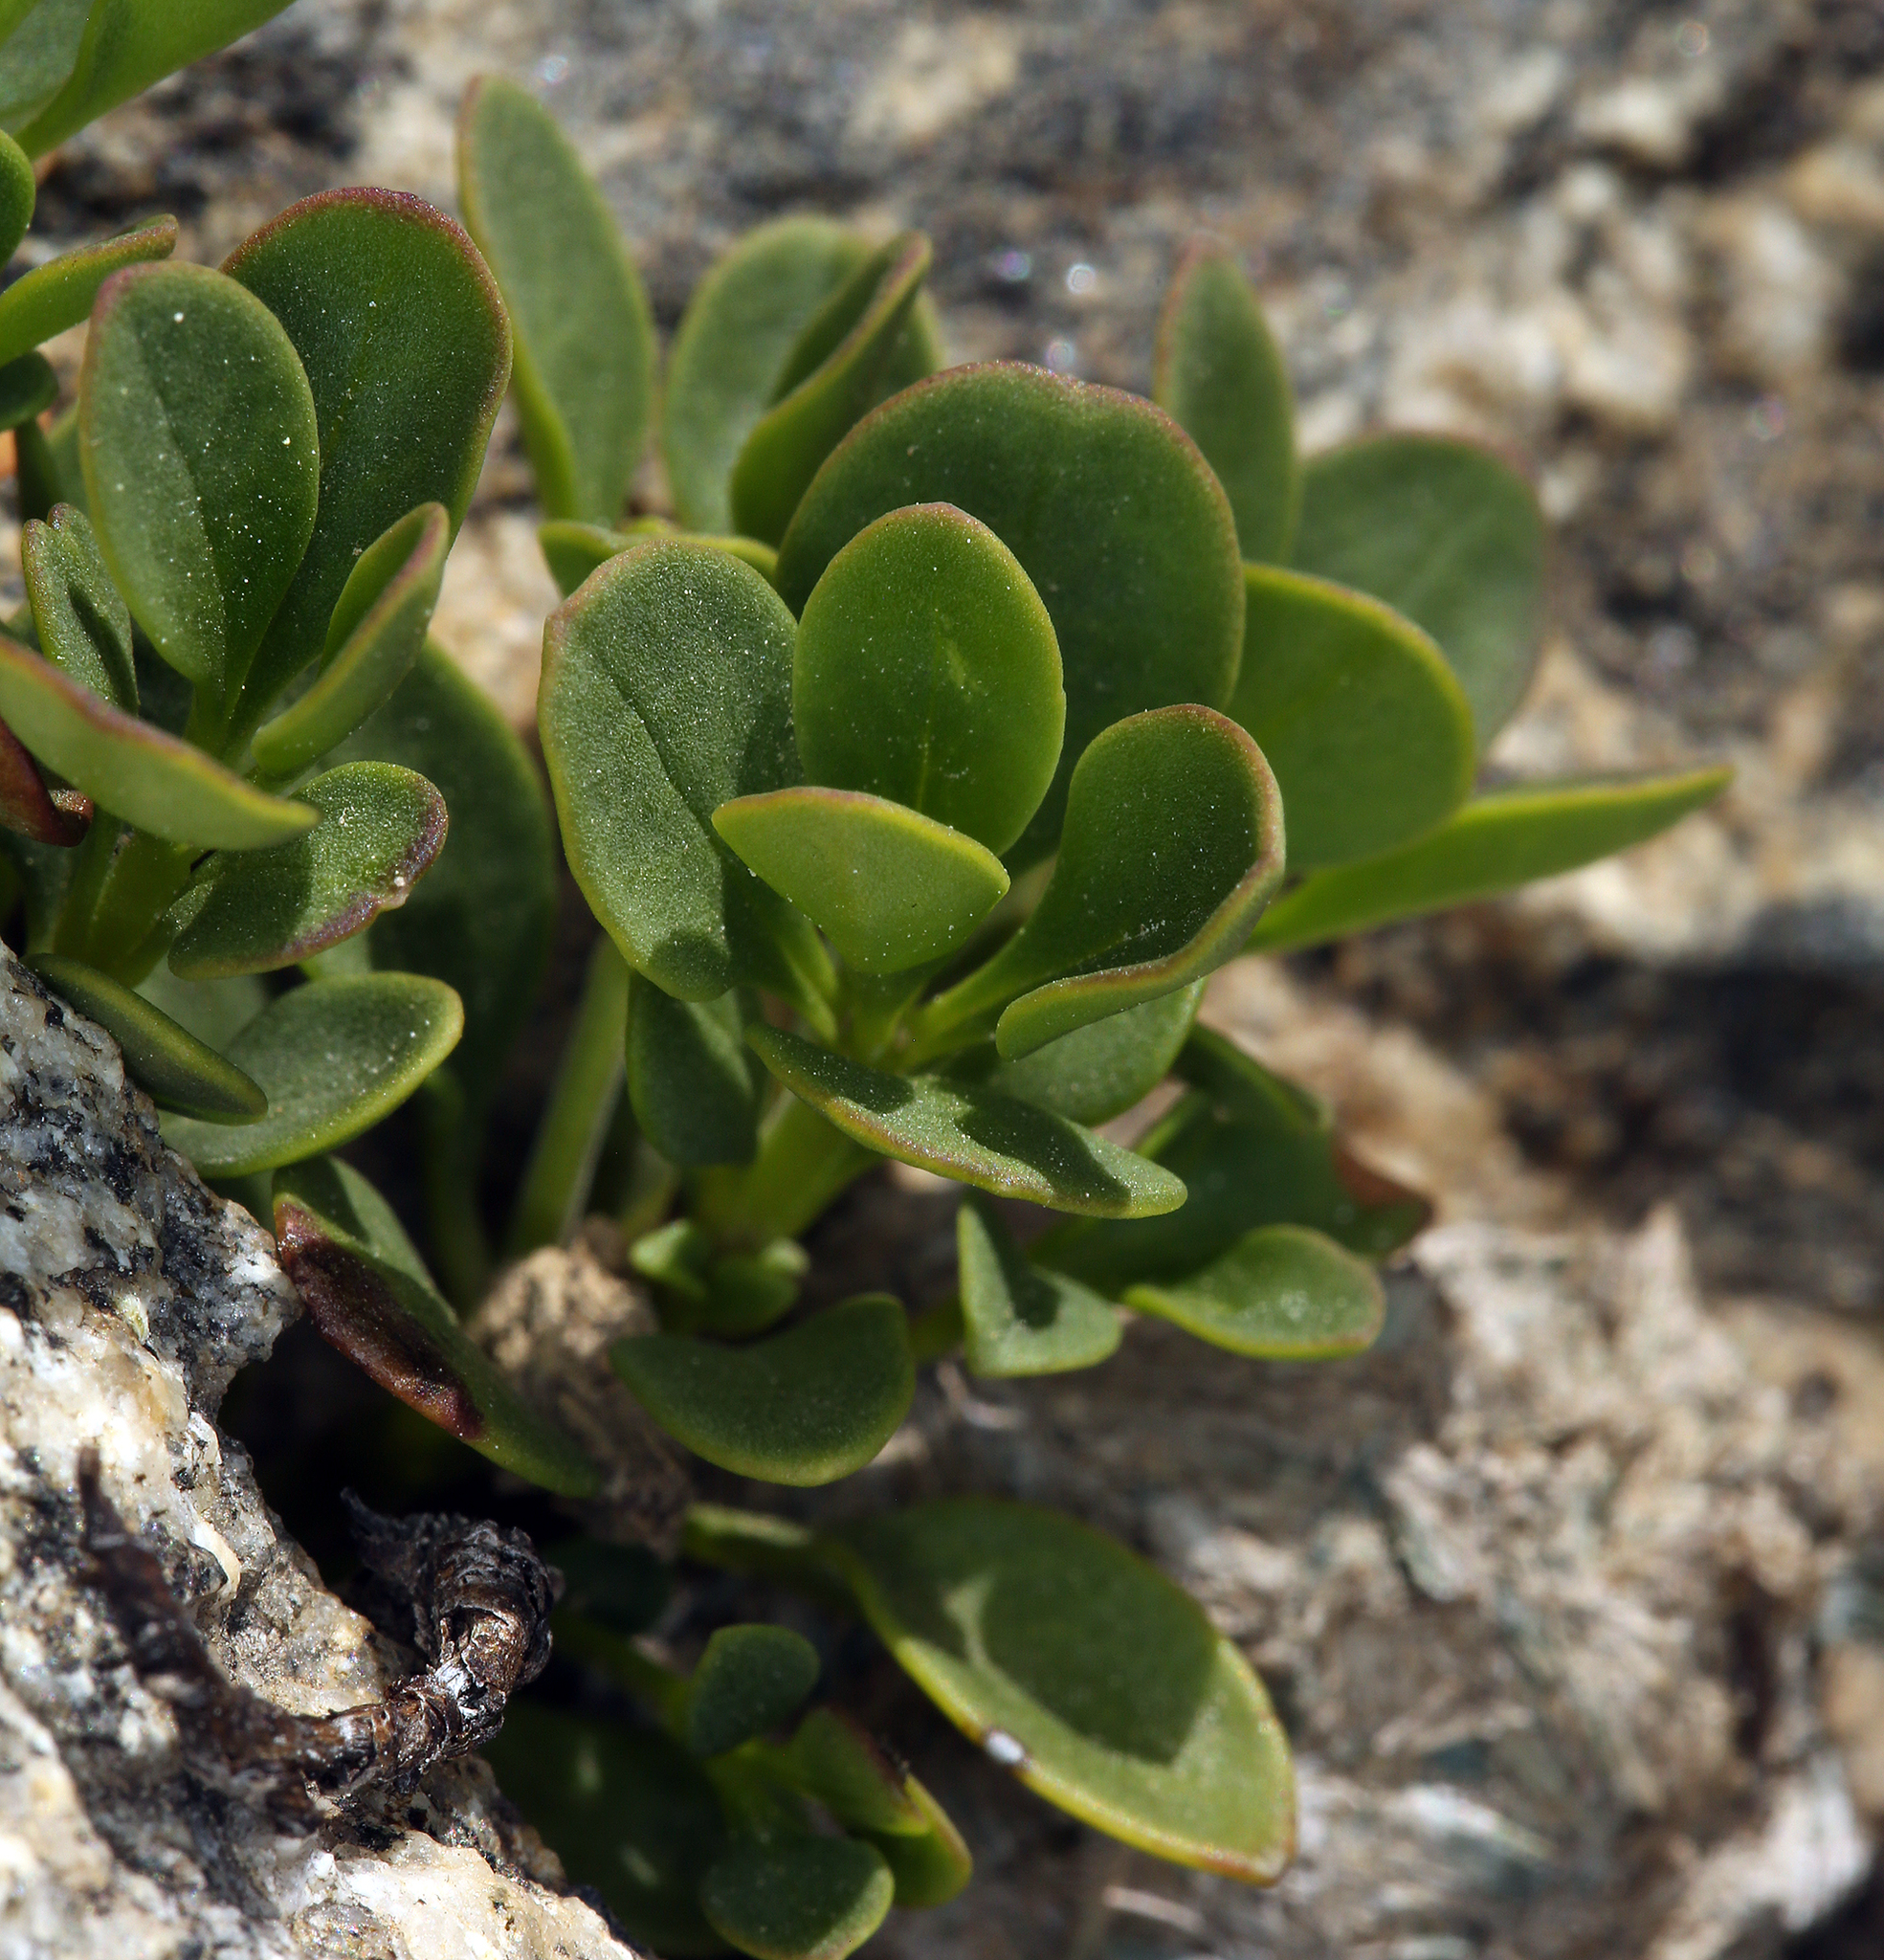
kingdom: Plantae
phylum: Tracheophyta
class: Magnoliopsida
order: Lamiales
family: Plantaginaceae
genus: Penstemon
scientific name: Penstemon davidsonii
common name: Davidson's penstemon
